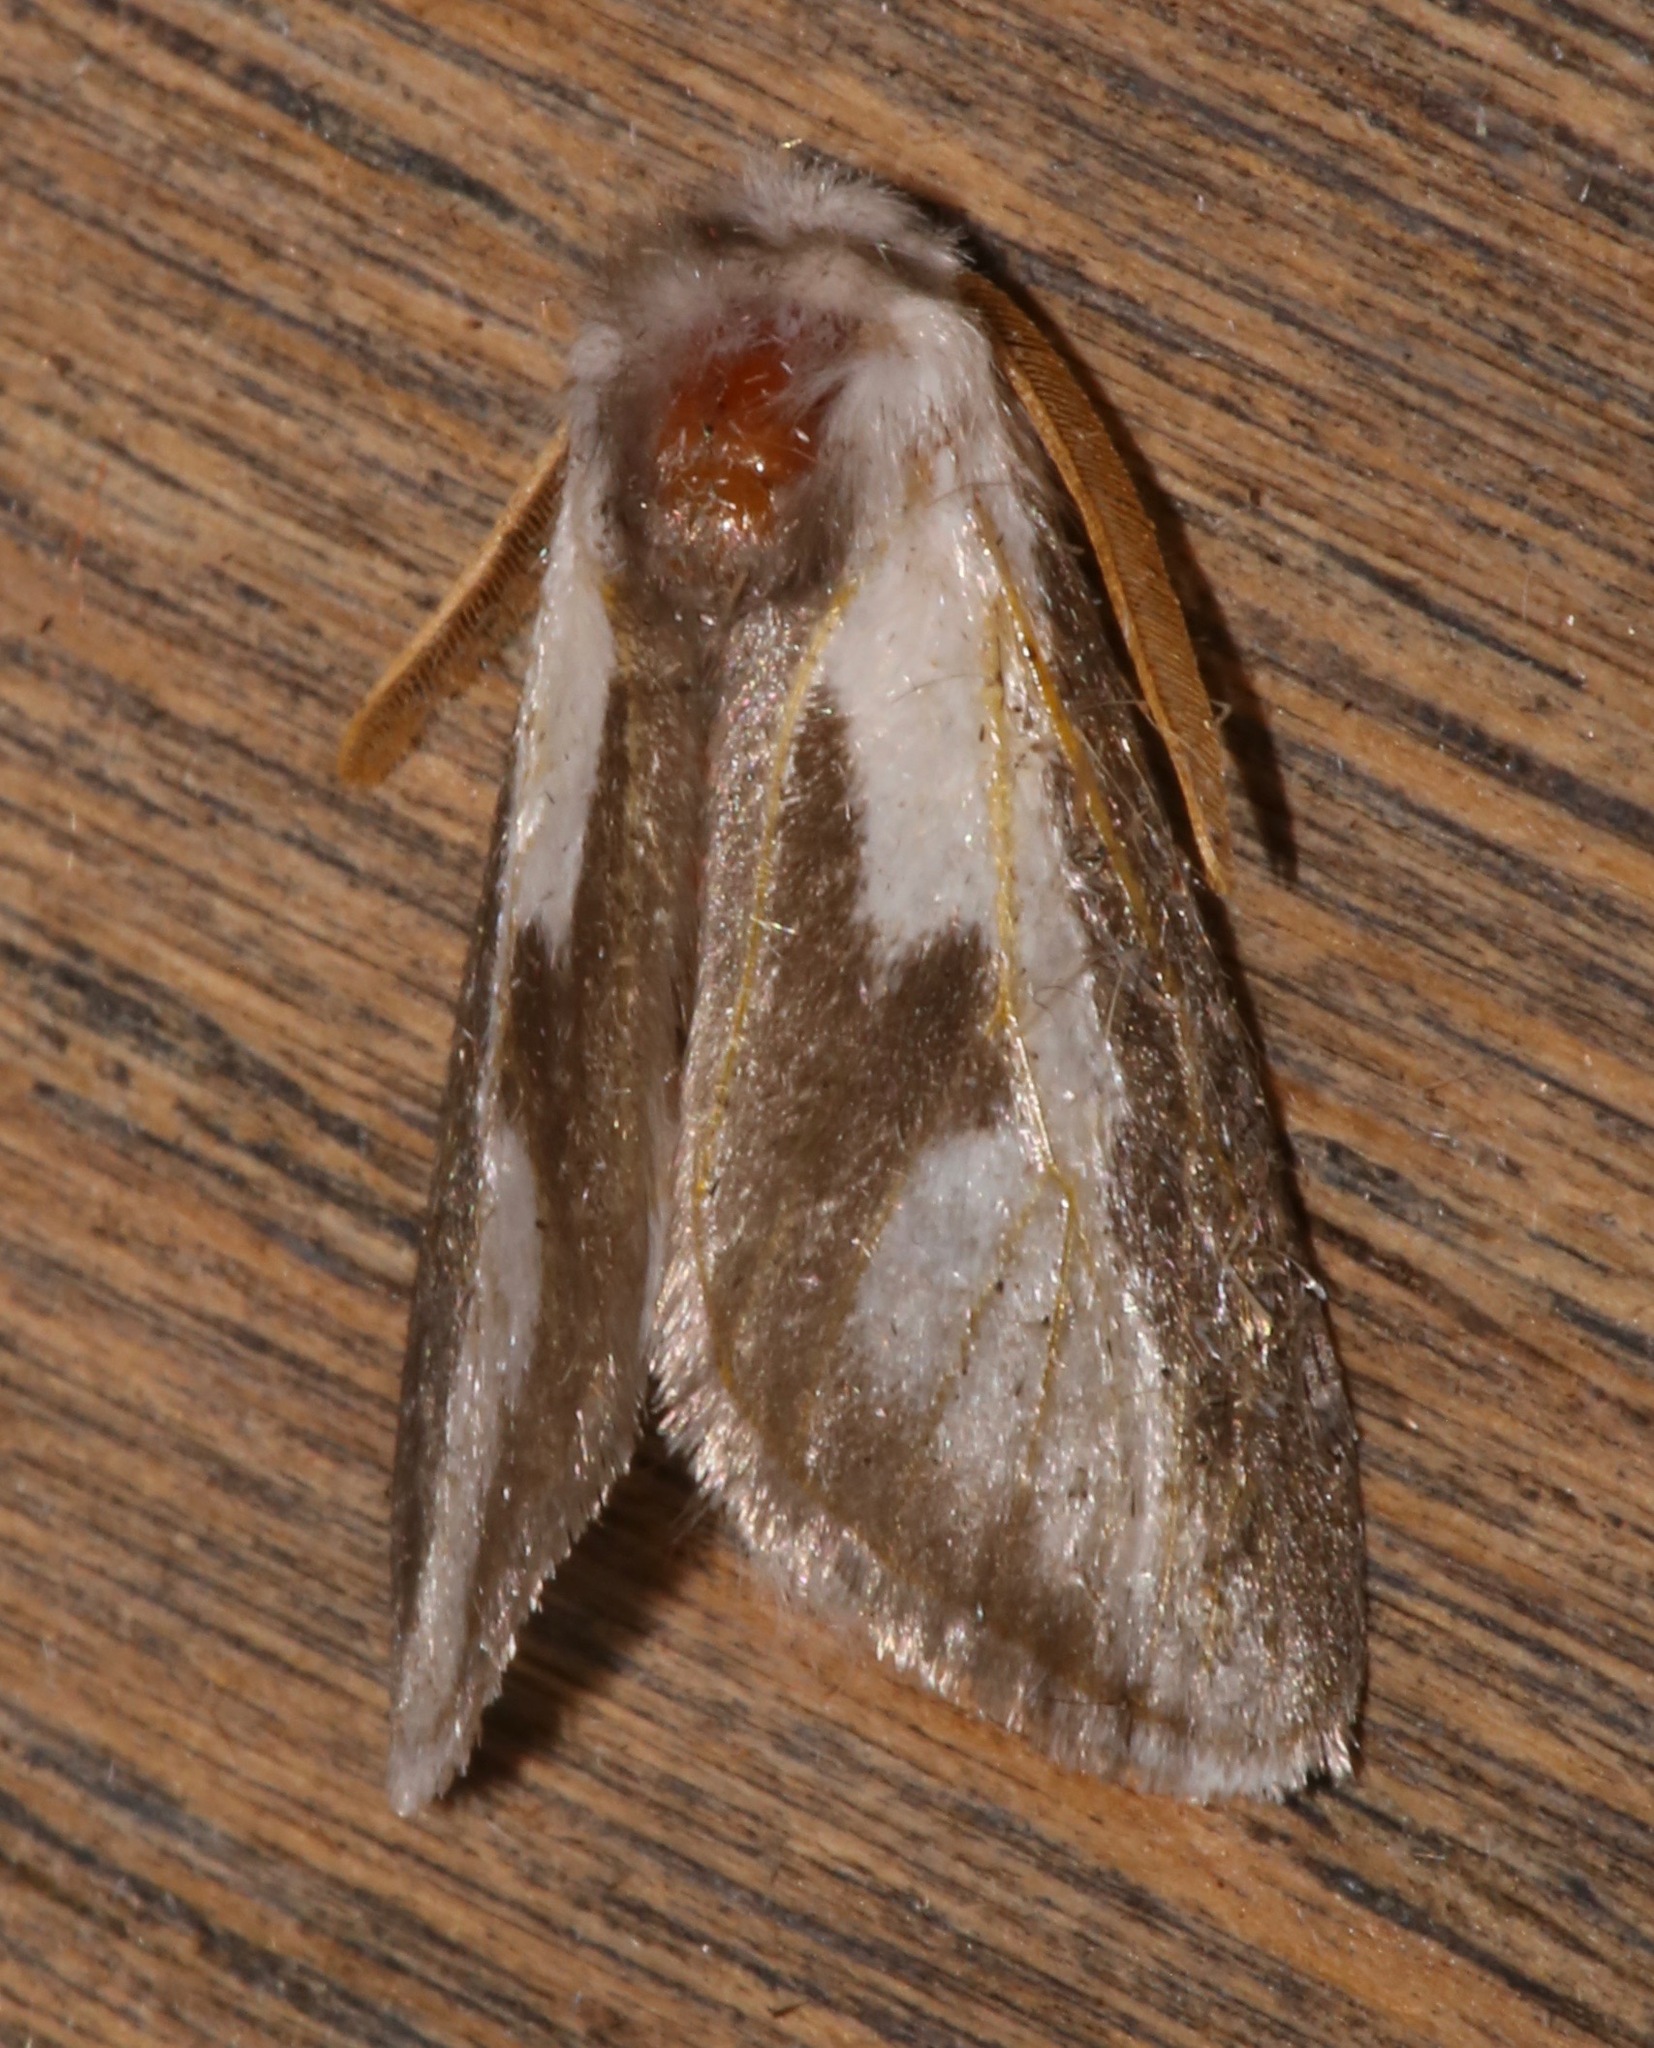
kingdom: Animalia
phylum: Arthropoda
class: Insecta
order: Lepidoptera
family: Megalopygidae
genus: Norape
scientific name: Norape tener
